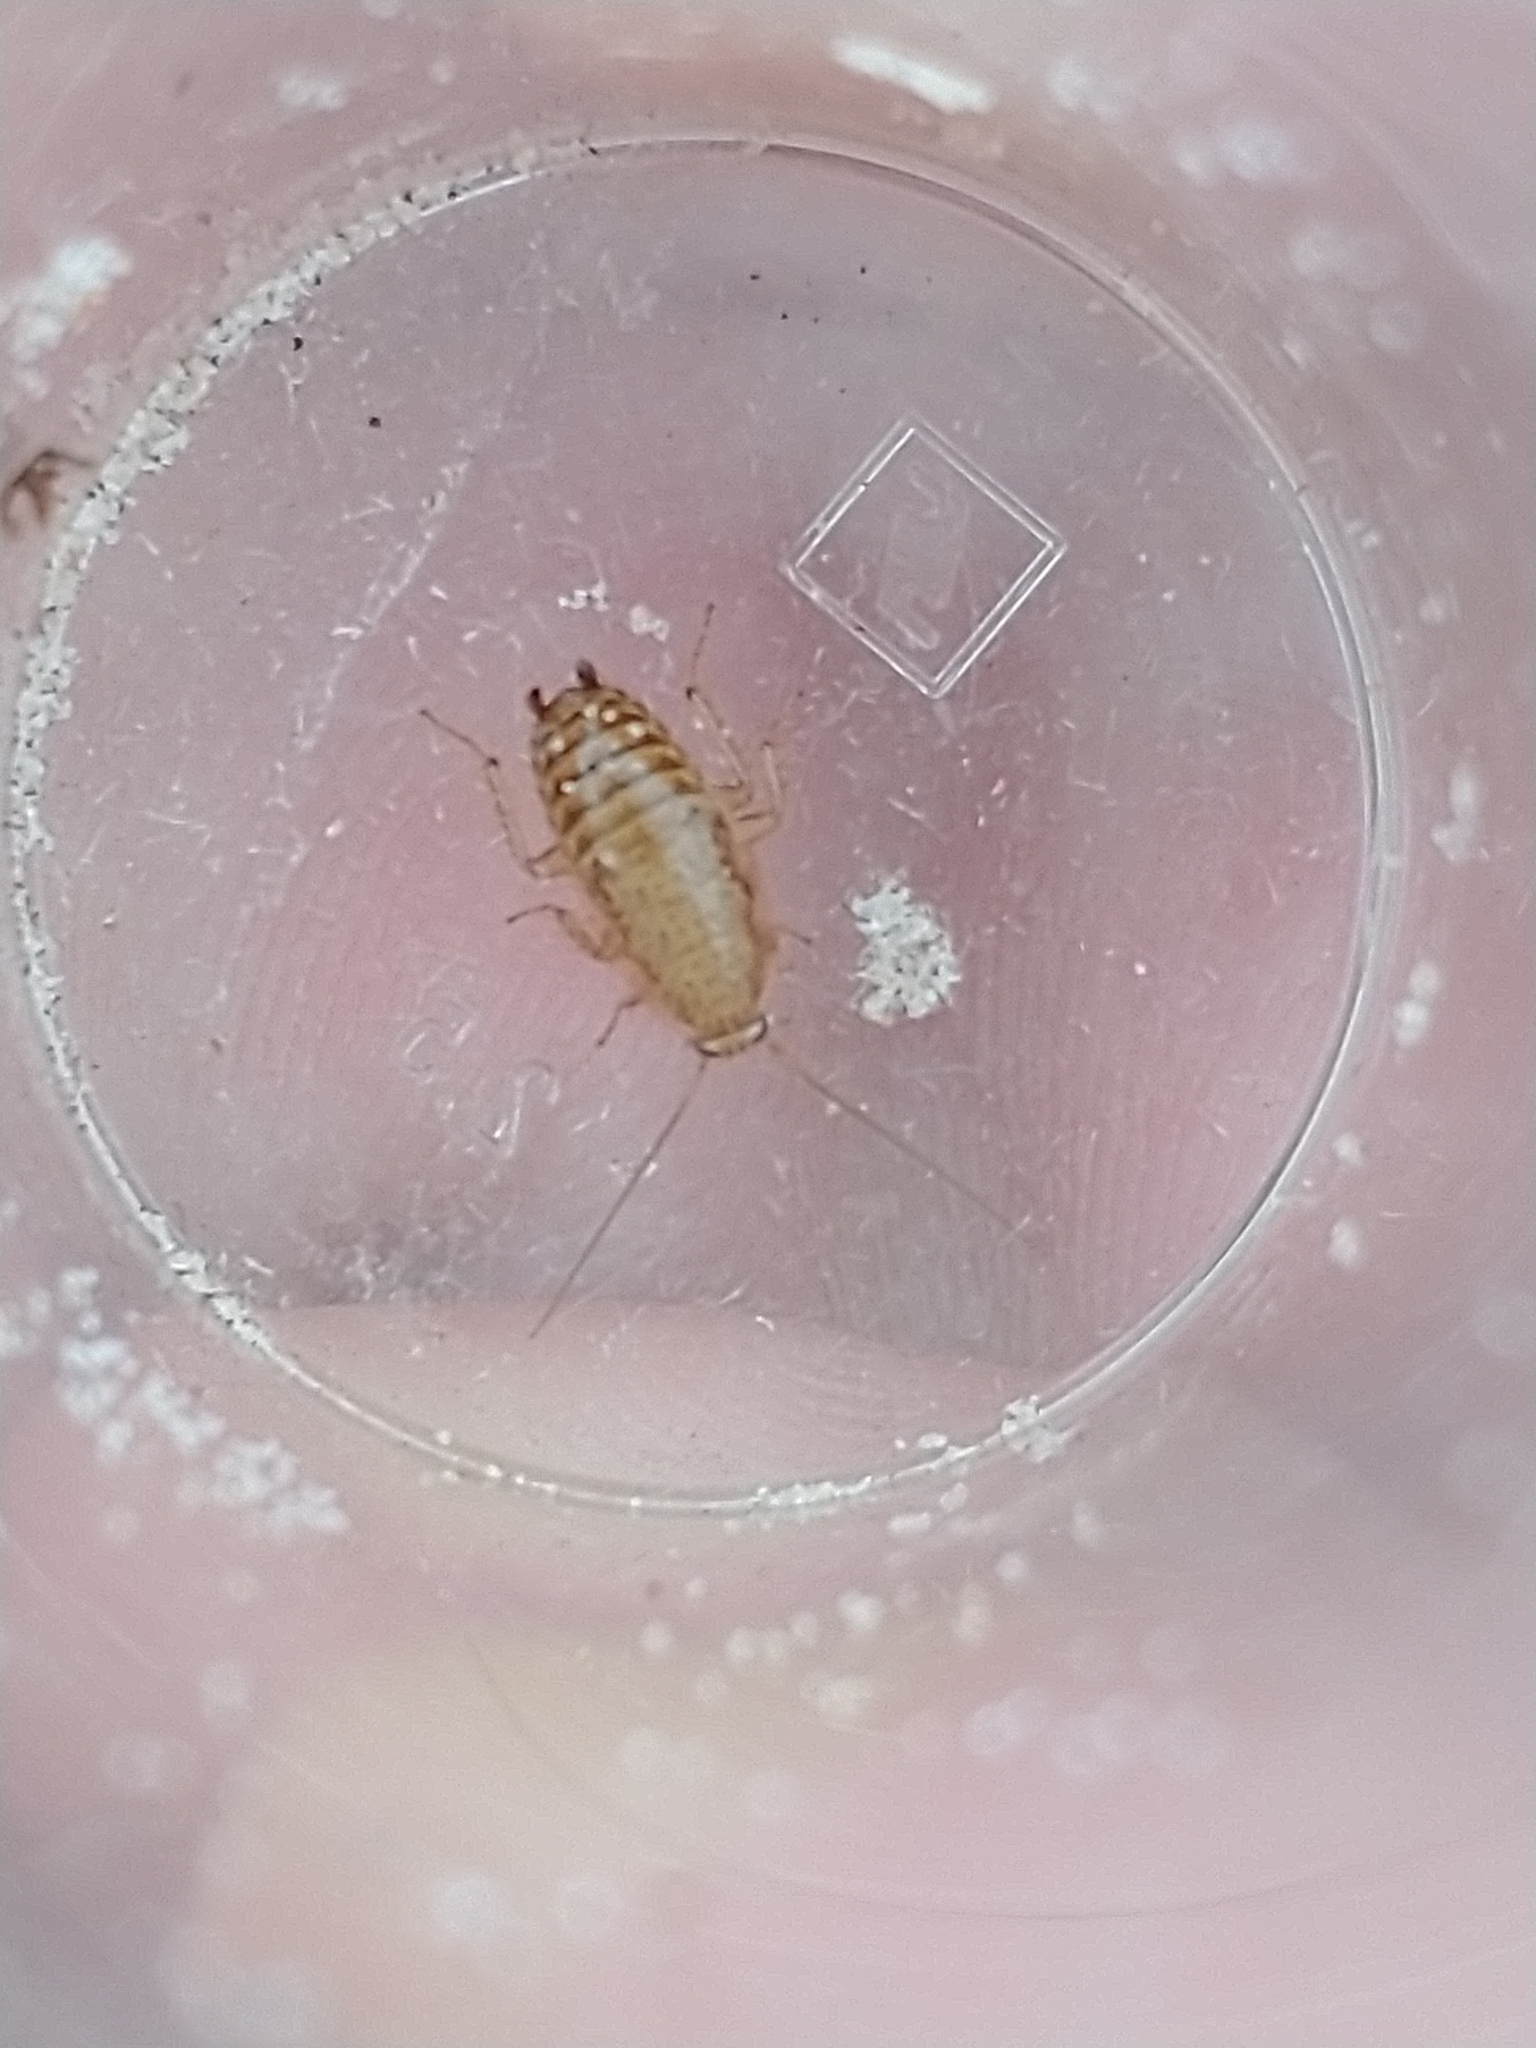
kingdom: Animalia
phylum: Arthropoda
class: Insecta
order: Blattodea
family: Ectobiidae
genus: Ectobius
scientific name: Ectobius pallidus
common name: Tawny cockroach
